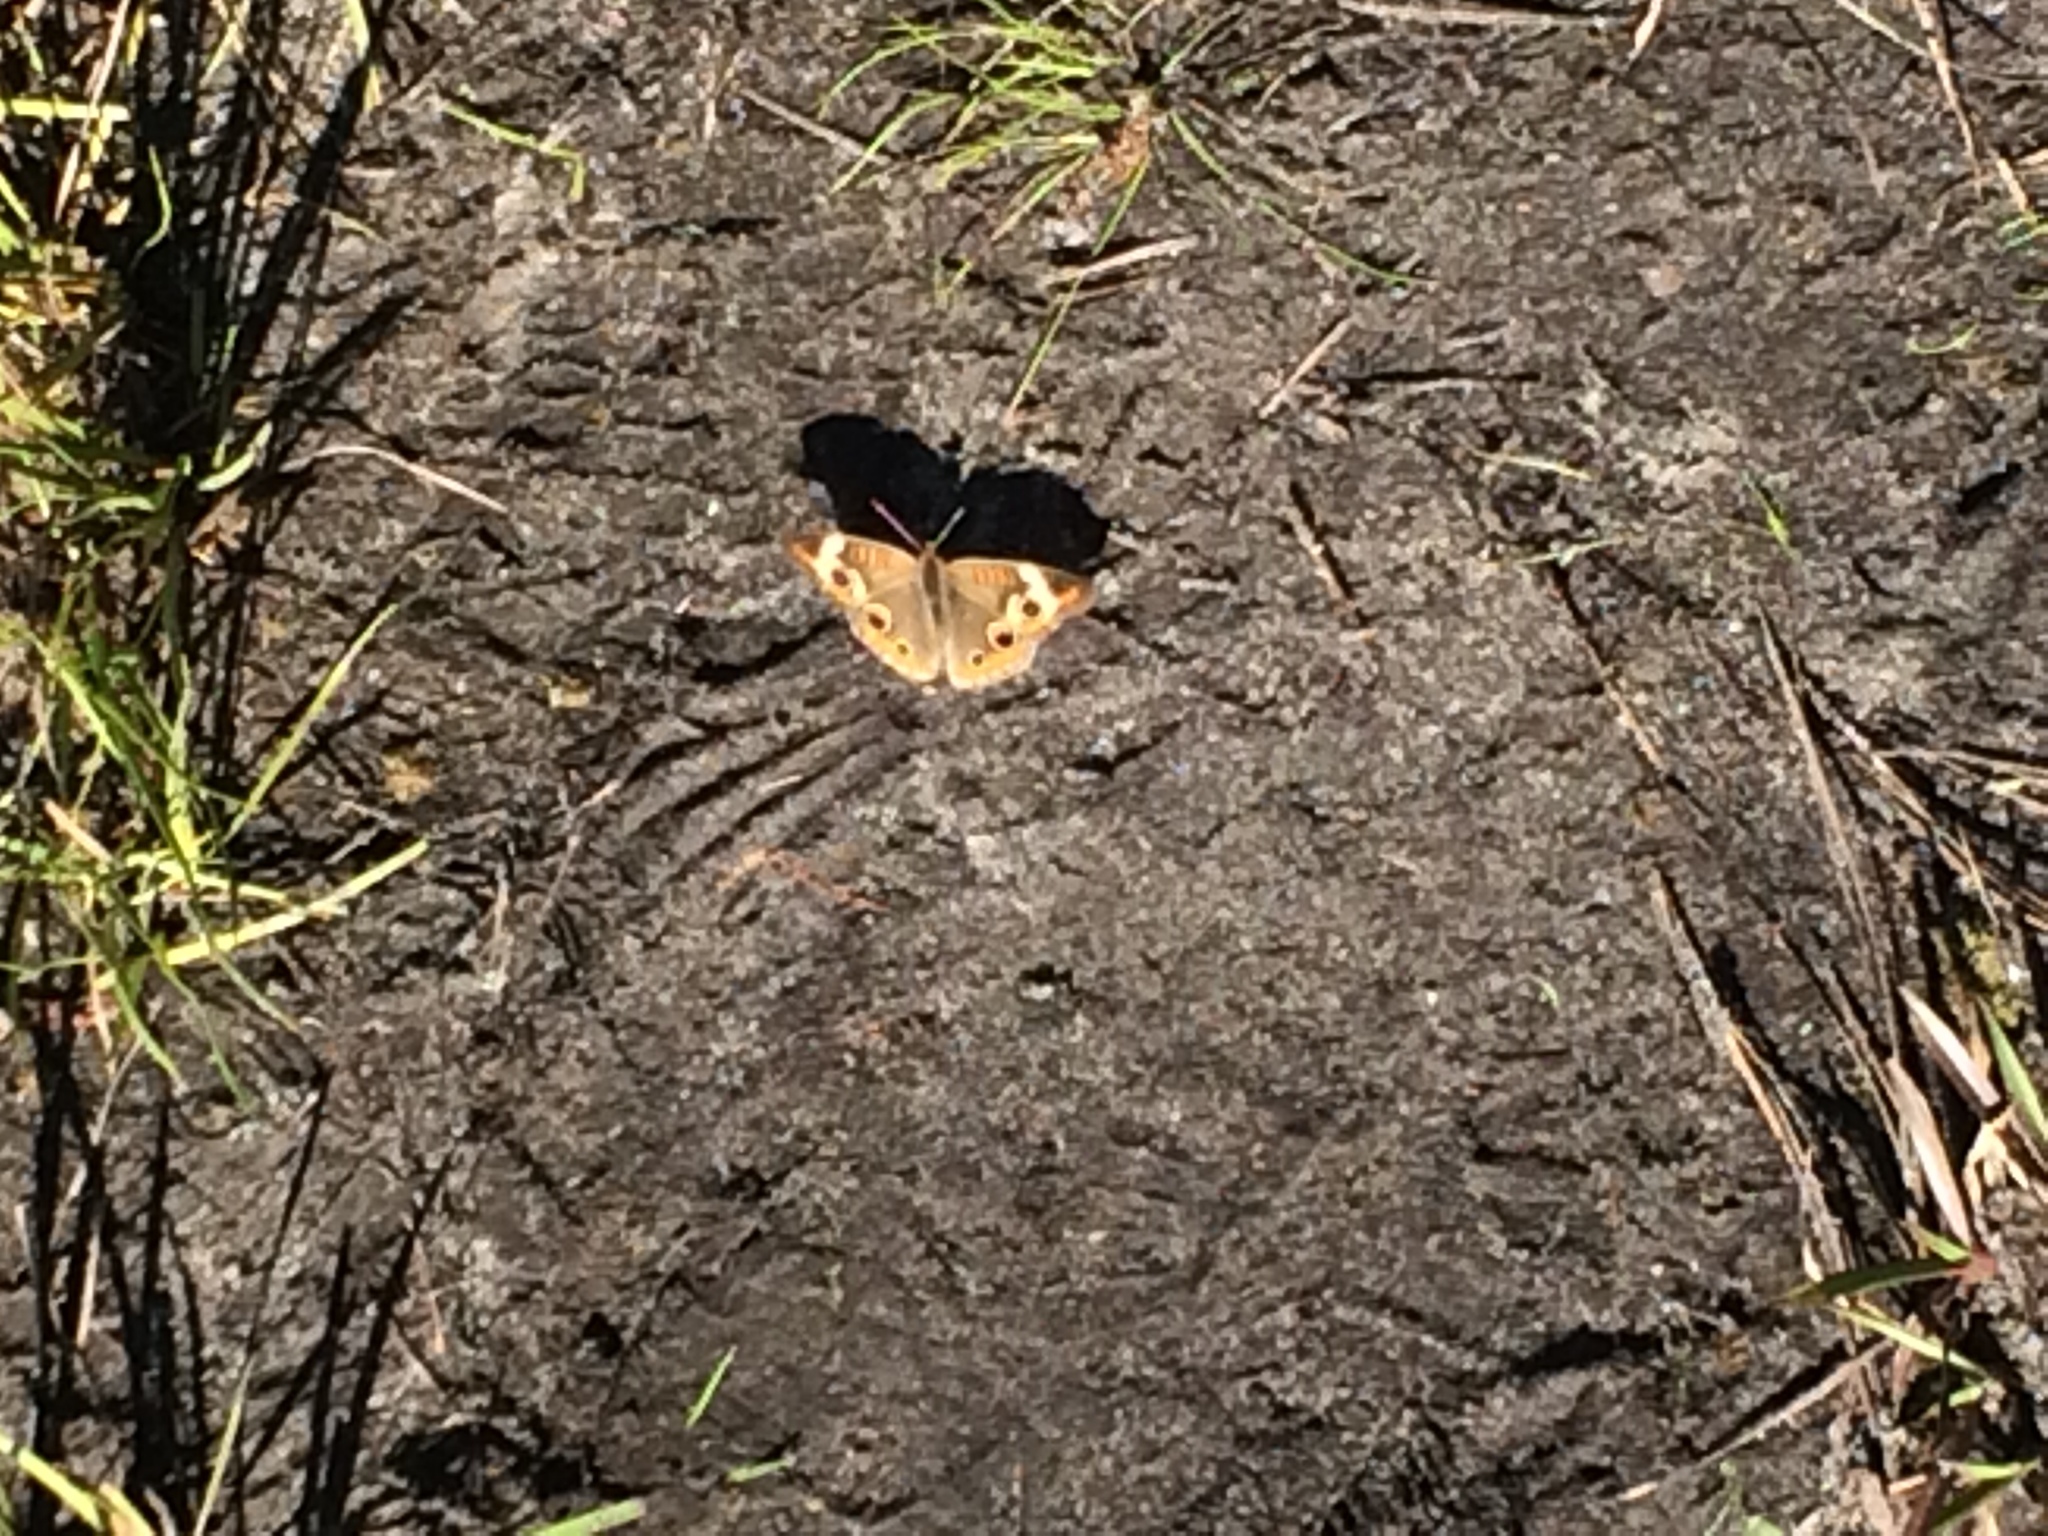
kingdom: Animalia
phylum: Arthropoda
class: Insecta
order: Lepidoptera
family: Nymphalidae
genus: Junonia
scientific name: Junonia coenia
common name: Common buckeye
